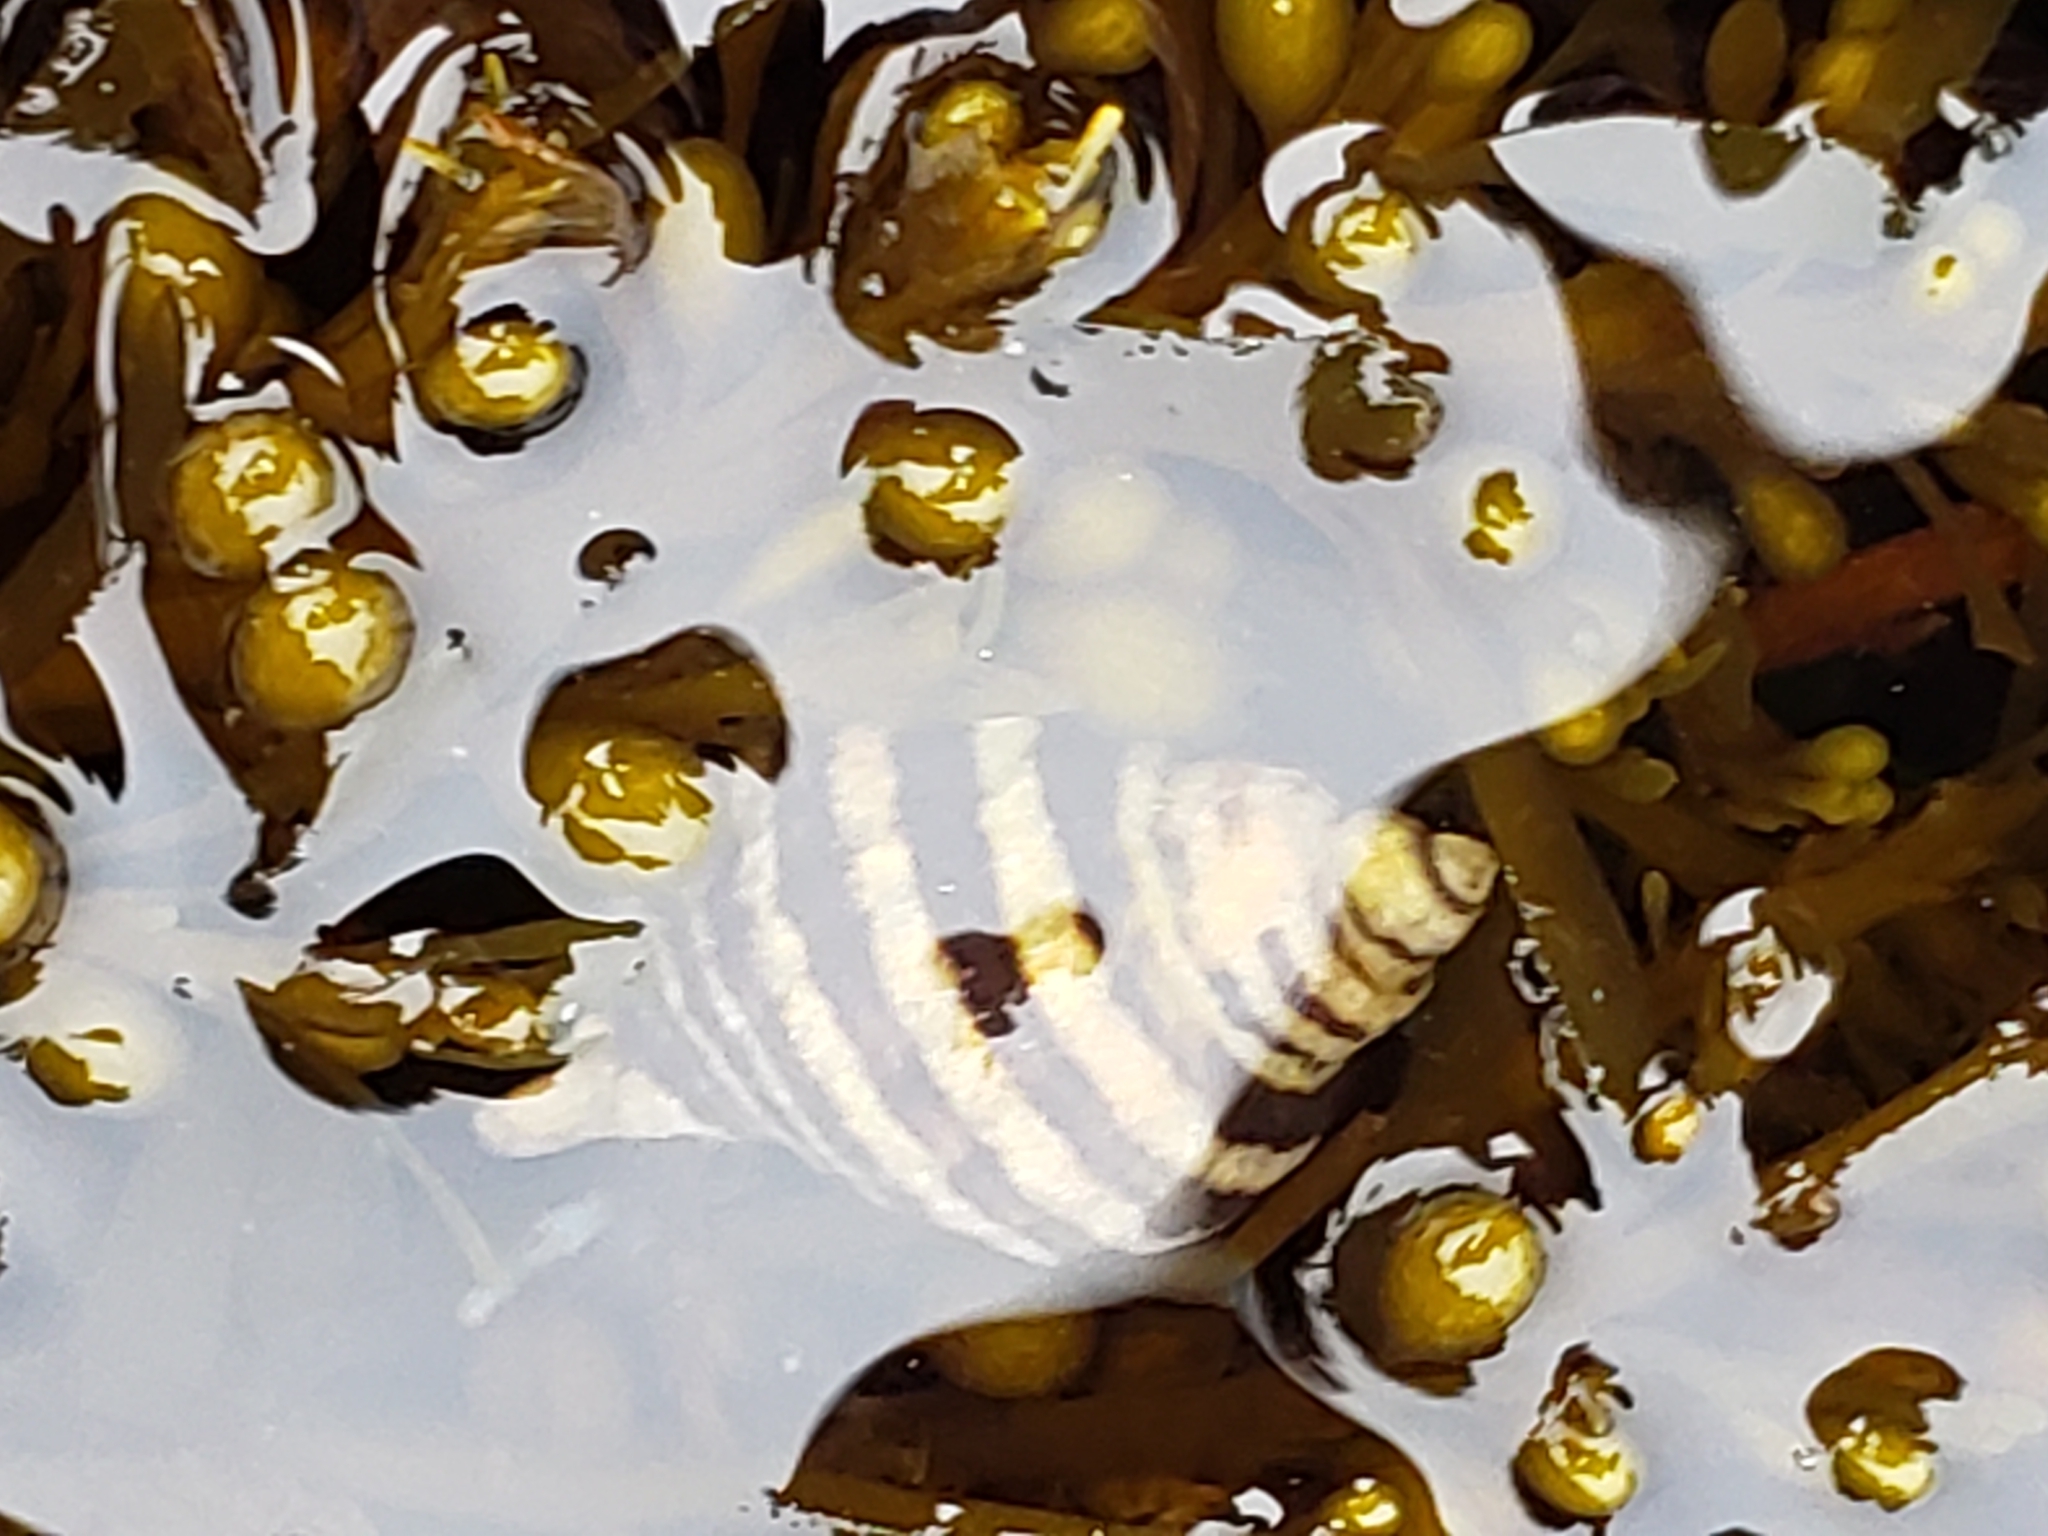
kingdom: Animalia
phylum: Mollusca
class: Gastropoda
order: Neogastropoda
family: Muricidae
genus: Nucella
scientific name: Nucella emarginata
